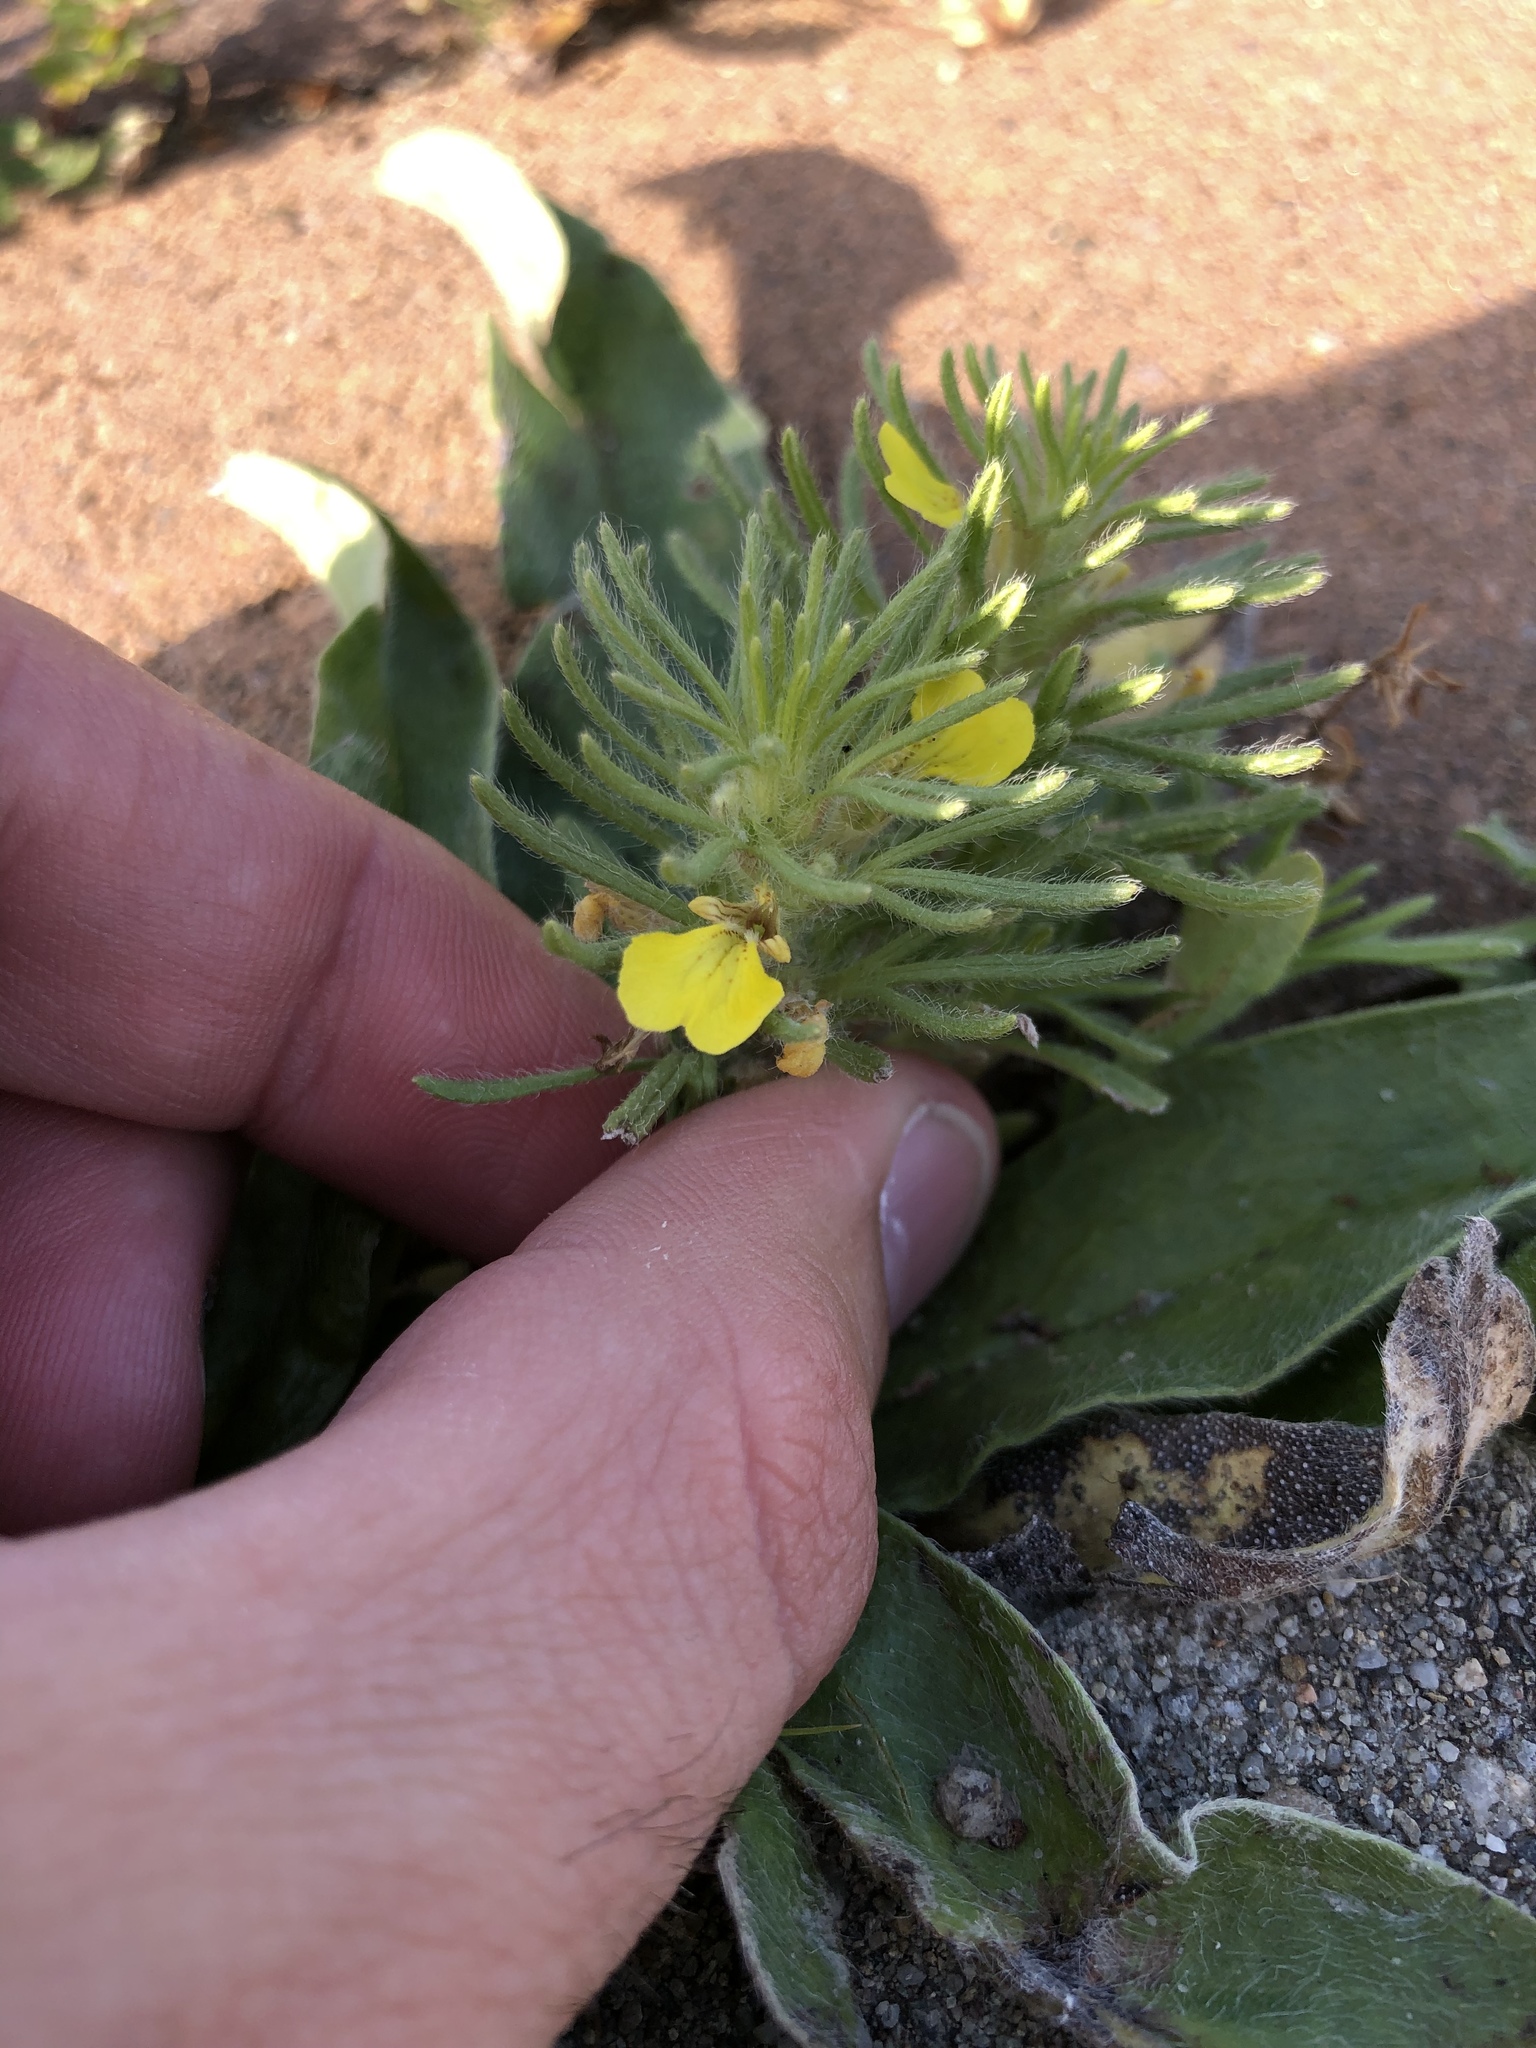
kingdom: Plantae
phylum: Tracheophyta
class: Magnoliopsida
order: Lamiales
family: Lamiaceae
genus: Ajuga
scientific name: Ajuga chamaepitys
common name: Ground-pine
